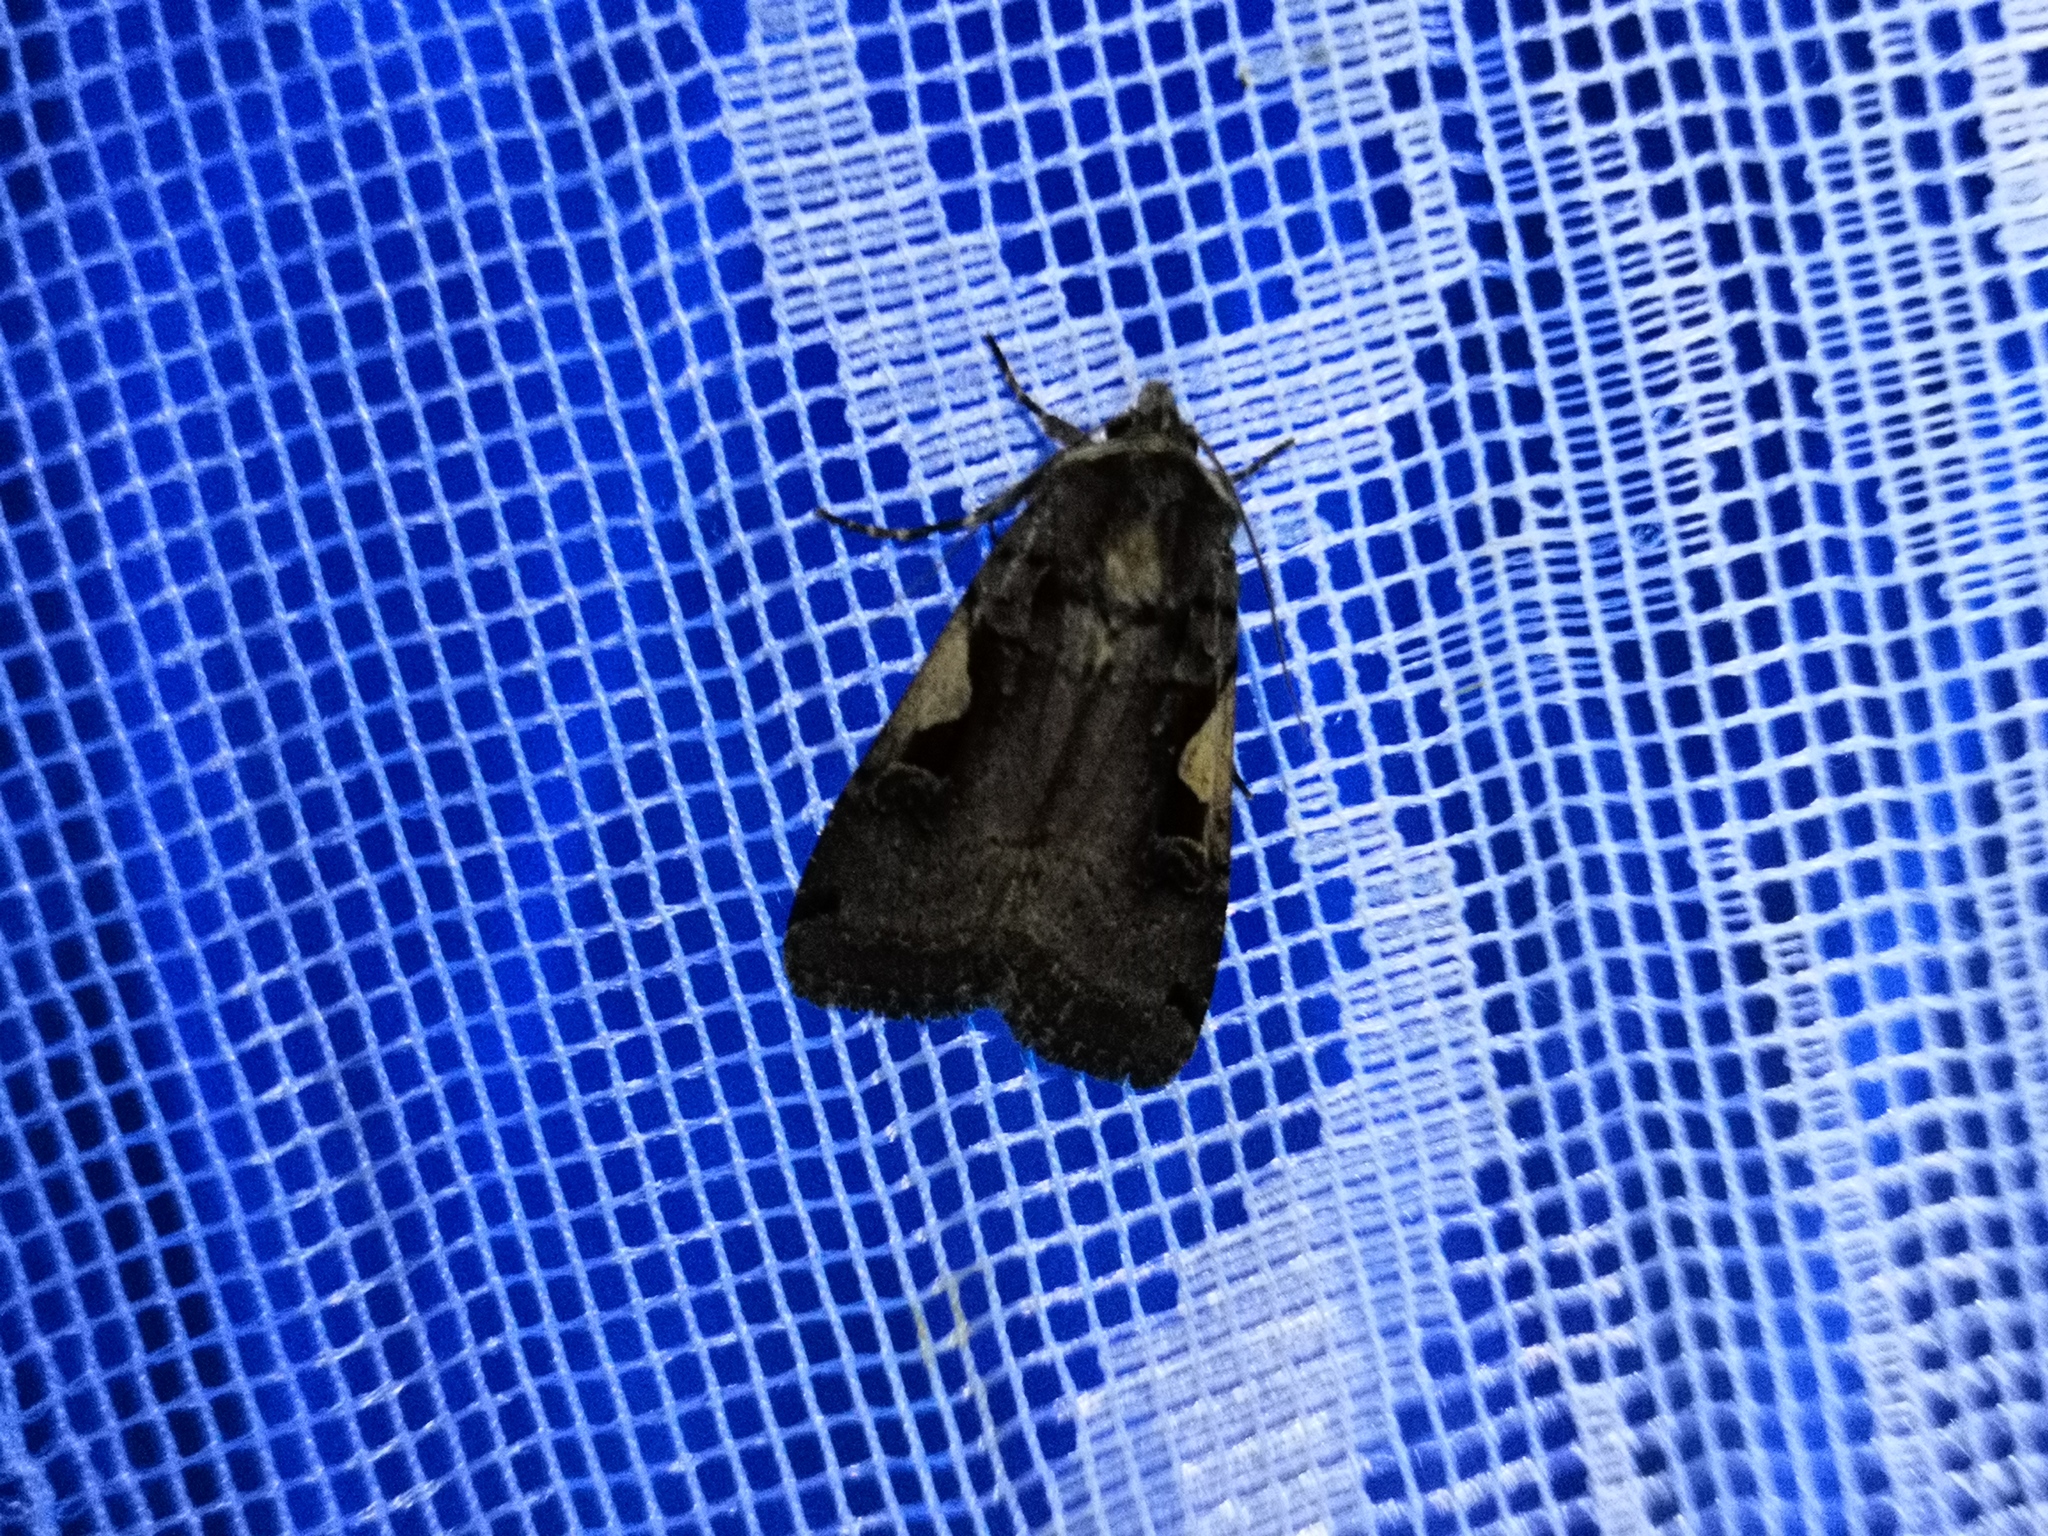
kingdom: Animalia
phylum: Arthropoda
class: Insecta
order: Lepidoptera
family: Noctuidae
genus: Xestia
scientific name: Xestia c-nigrum
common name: Setaceous hebrew character
